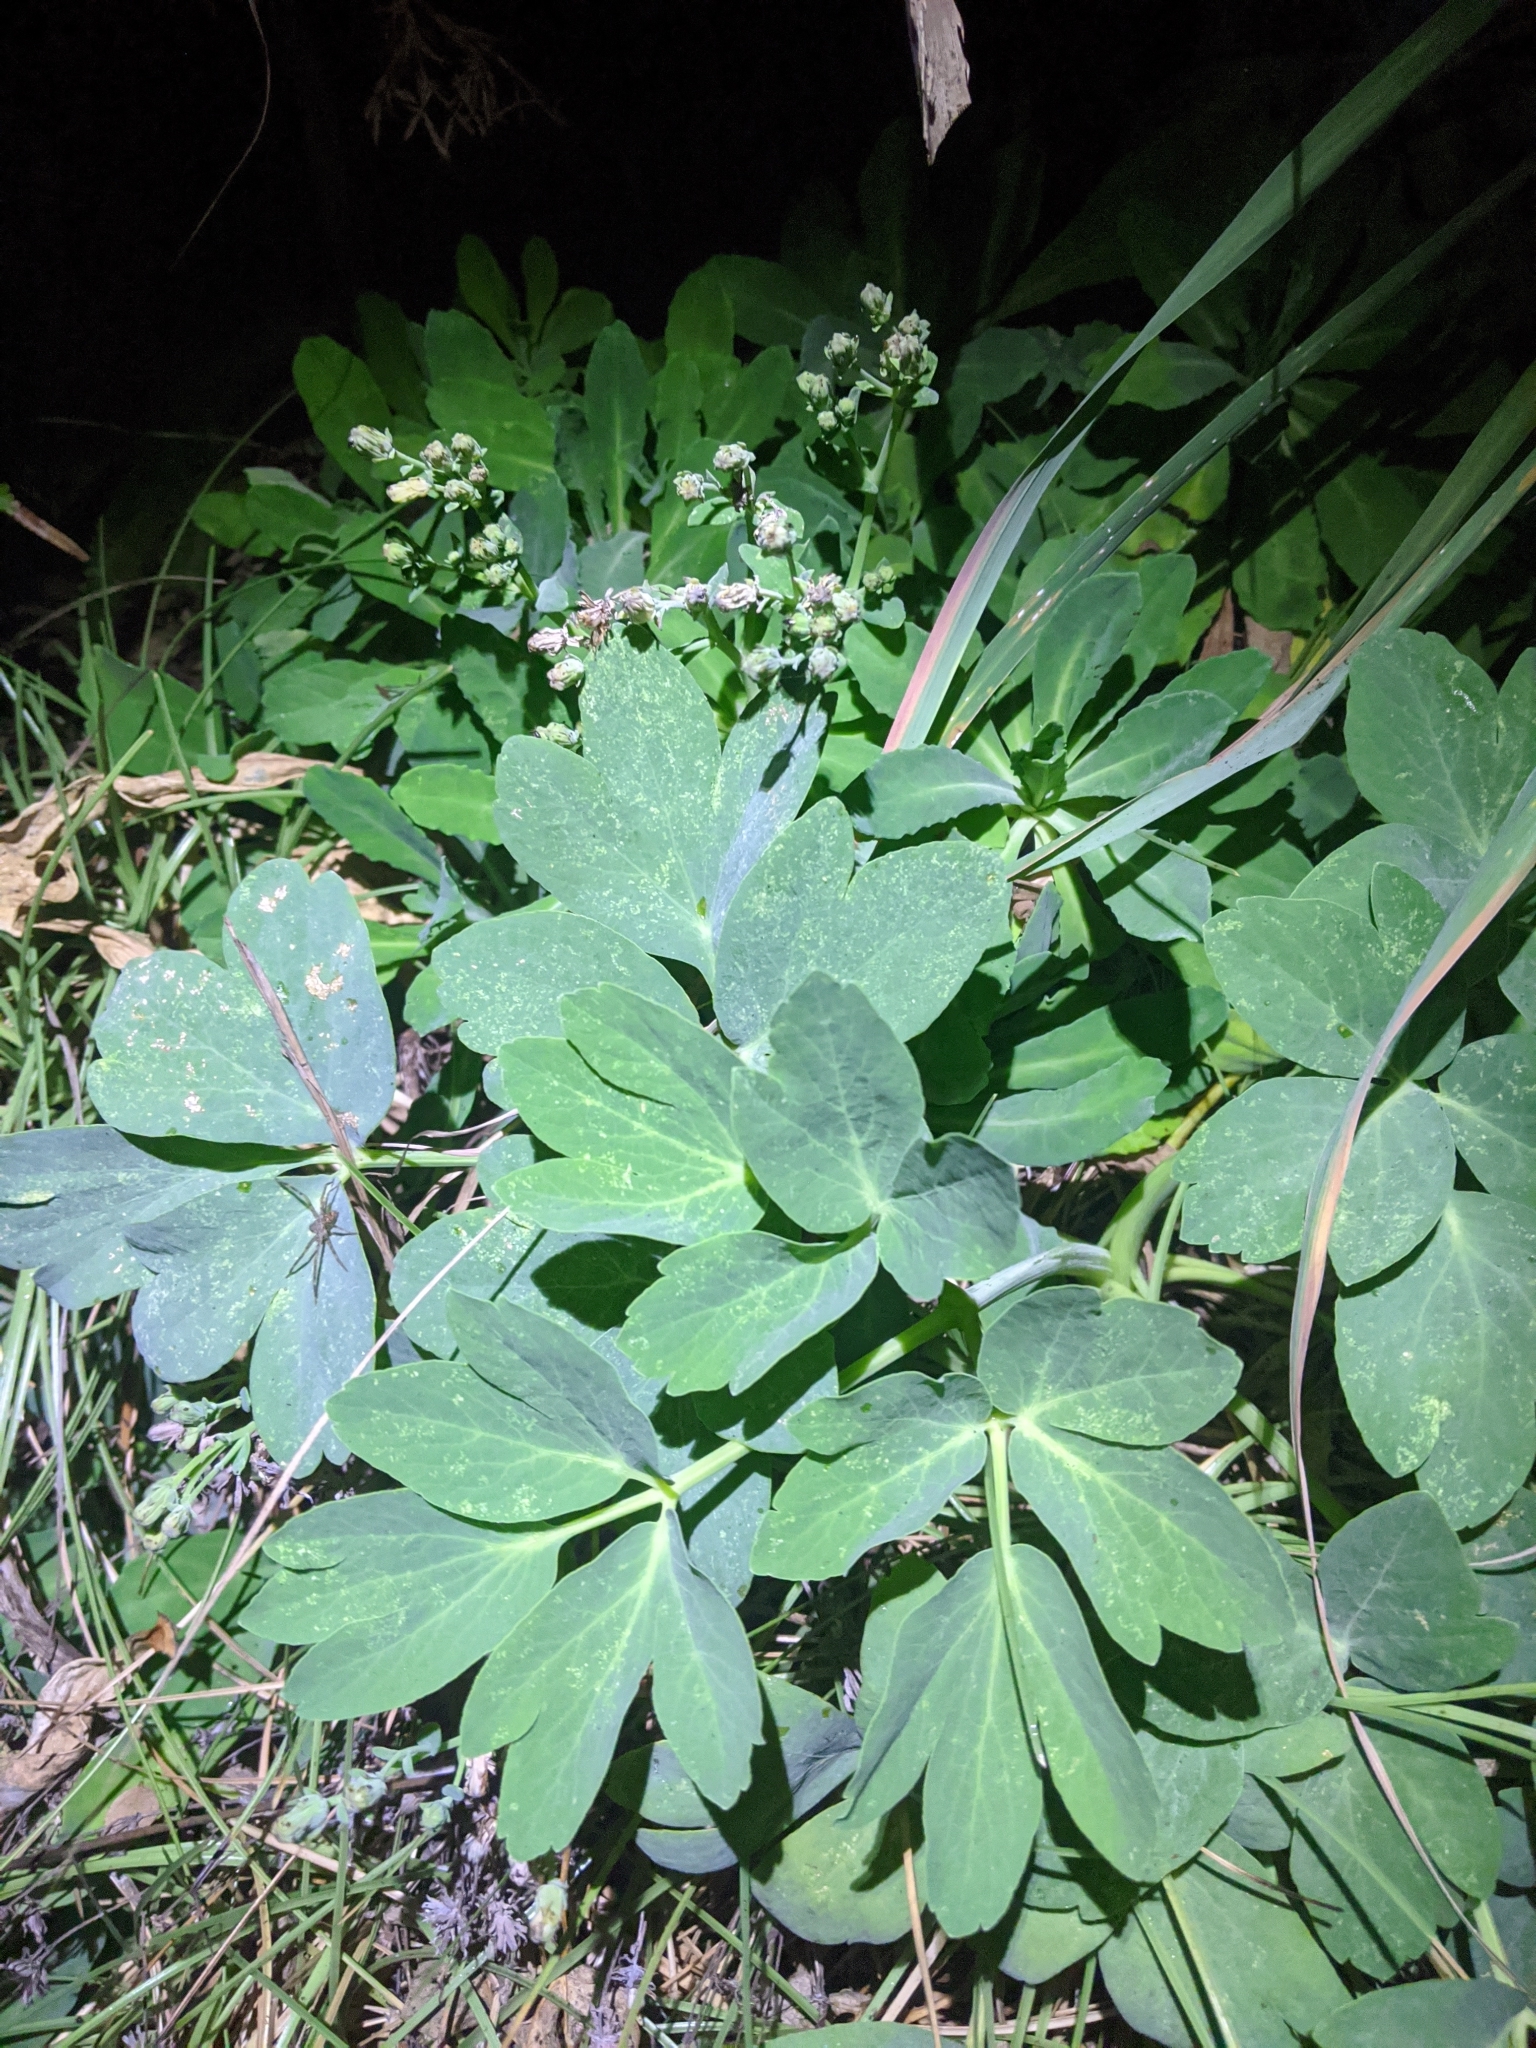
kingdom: Plantae
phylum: Tracheophyta
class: Magnoliopsida
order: Apiales
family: Apiaceae
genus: Peucedanum
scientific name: Peucedanum japonicum
